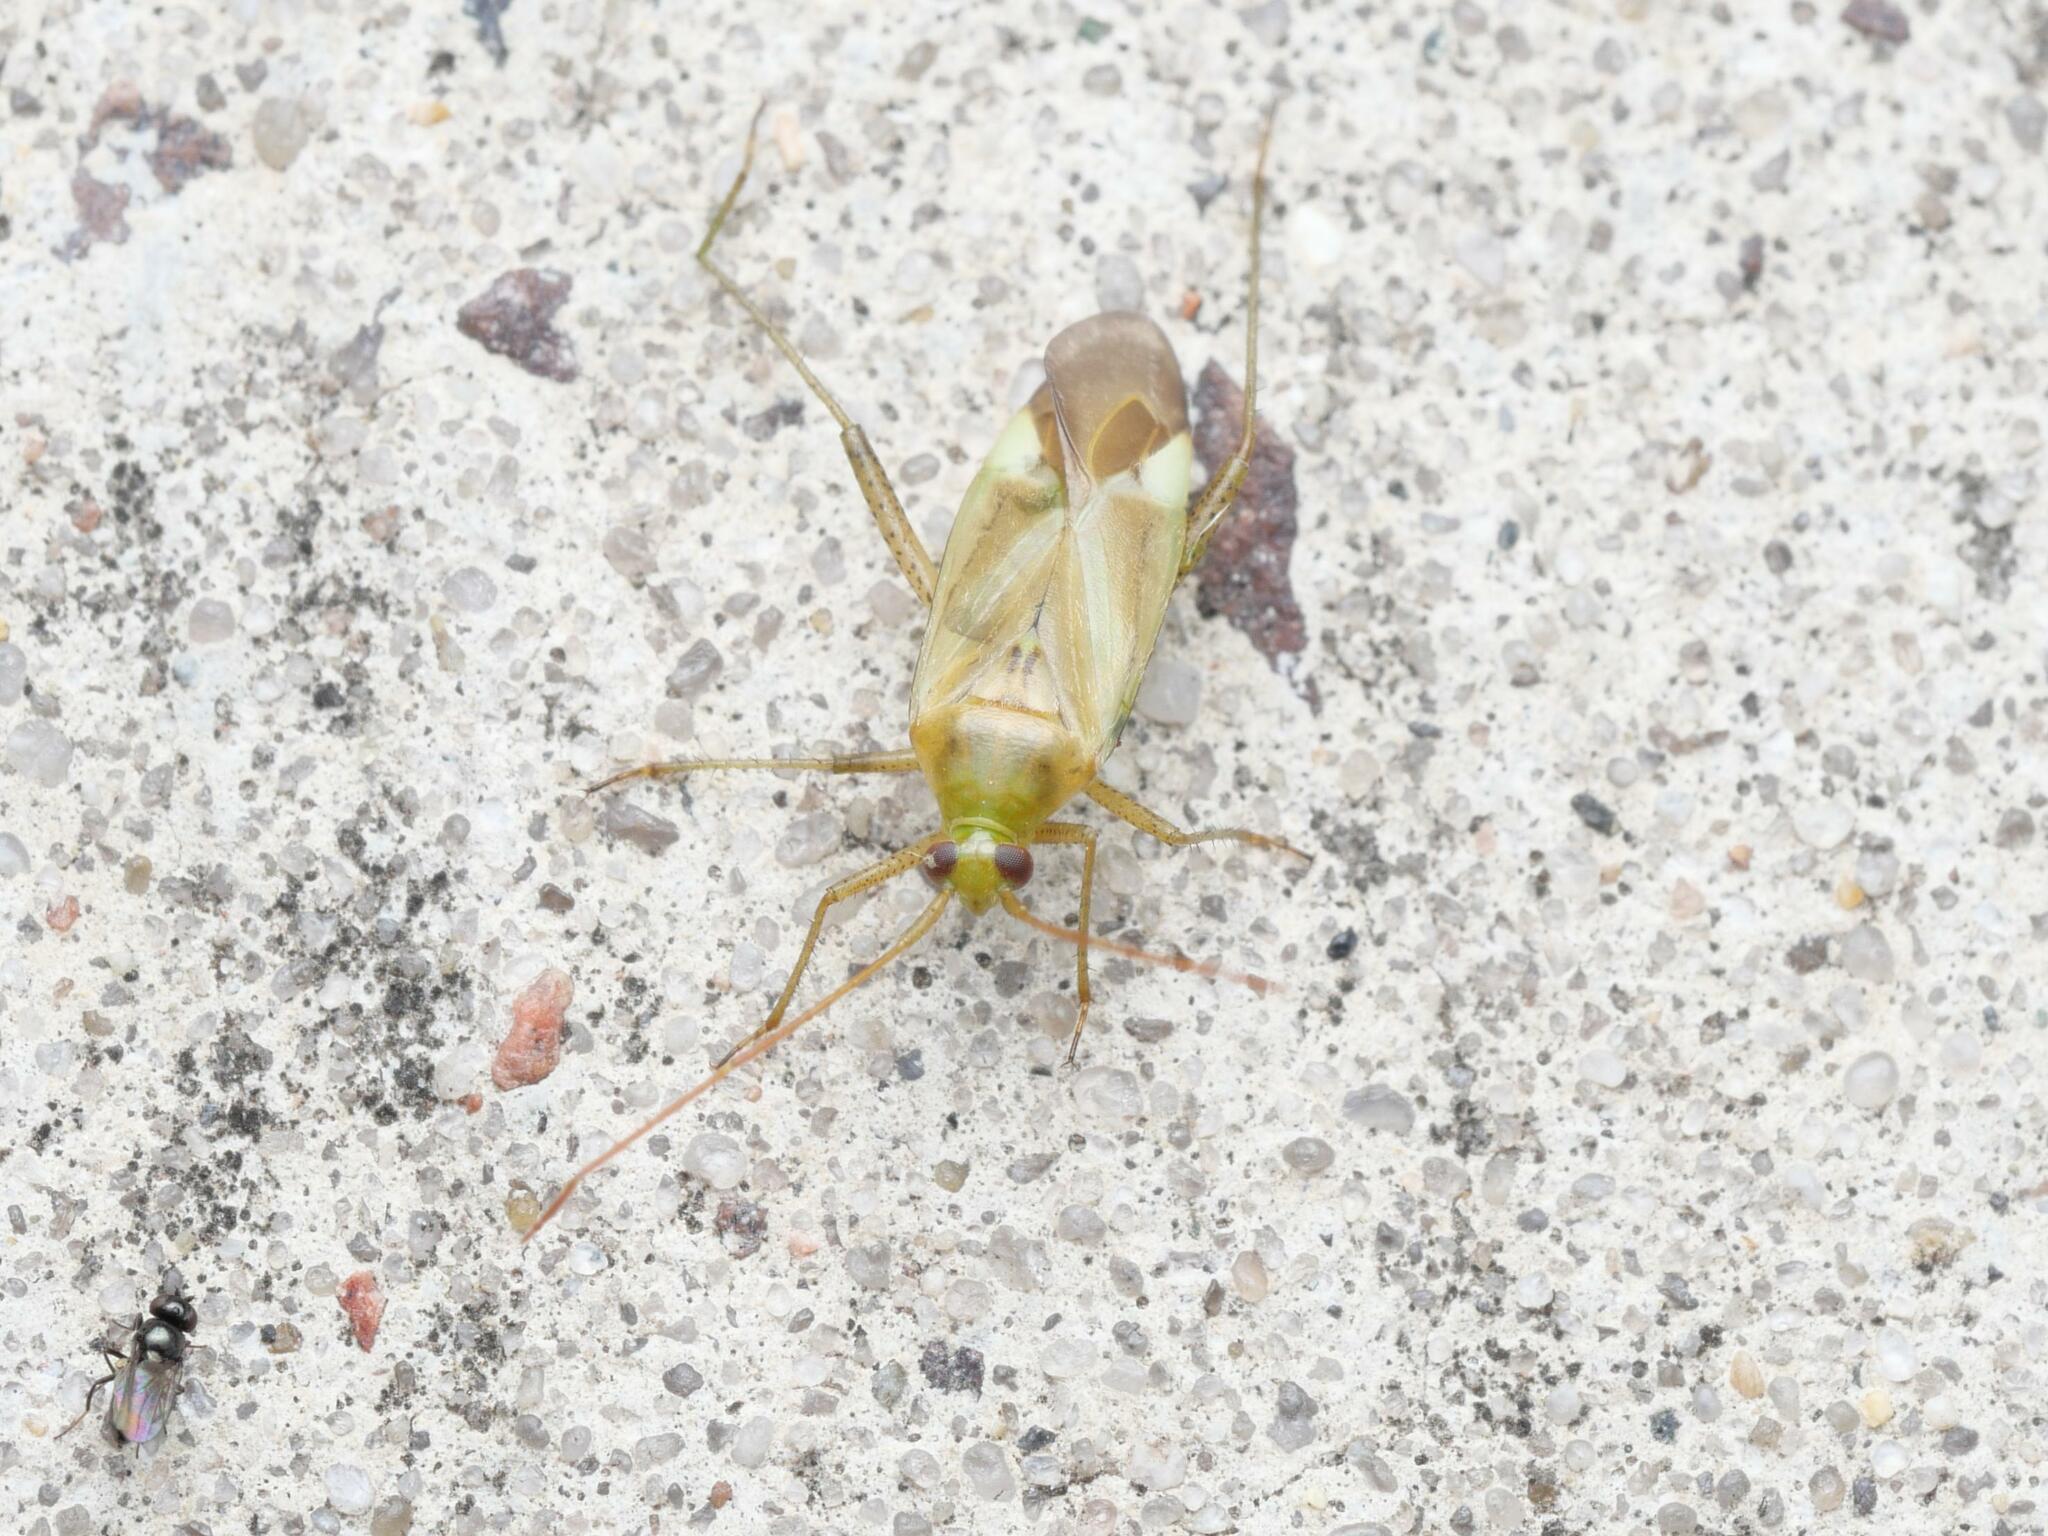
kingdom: Animalia
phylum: Arthropoda
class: Insecta
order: Hemiptera
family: Miridae
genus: Adelphocoris
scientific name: Adelphocoris lineolatus
